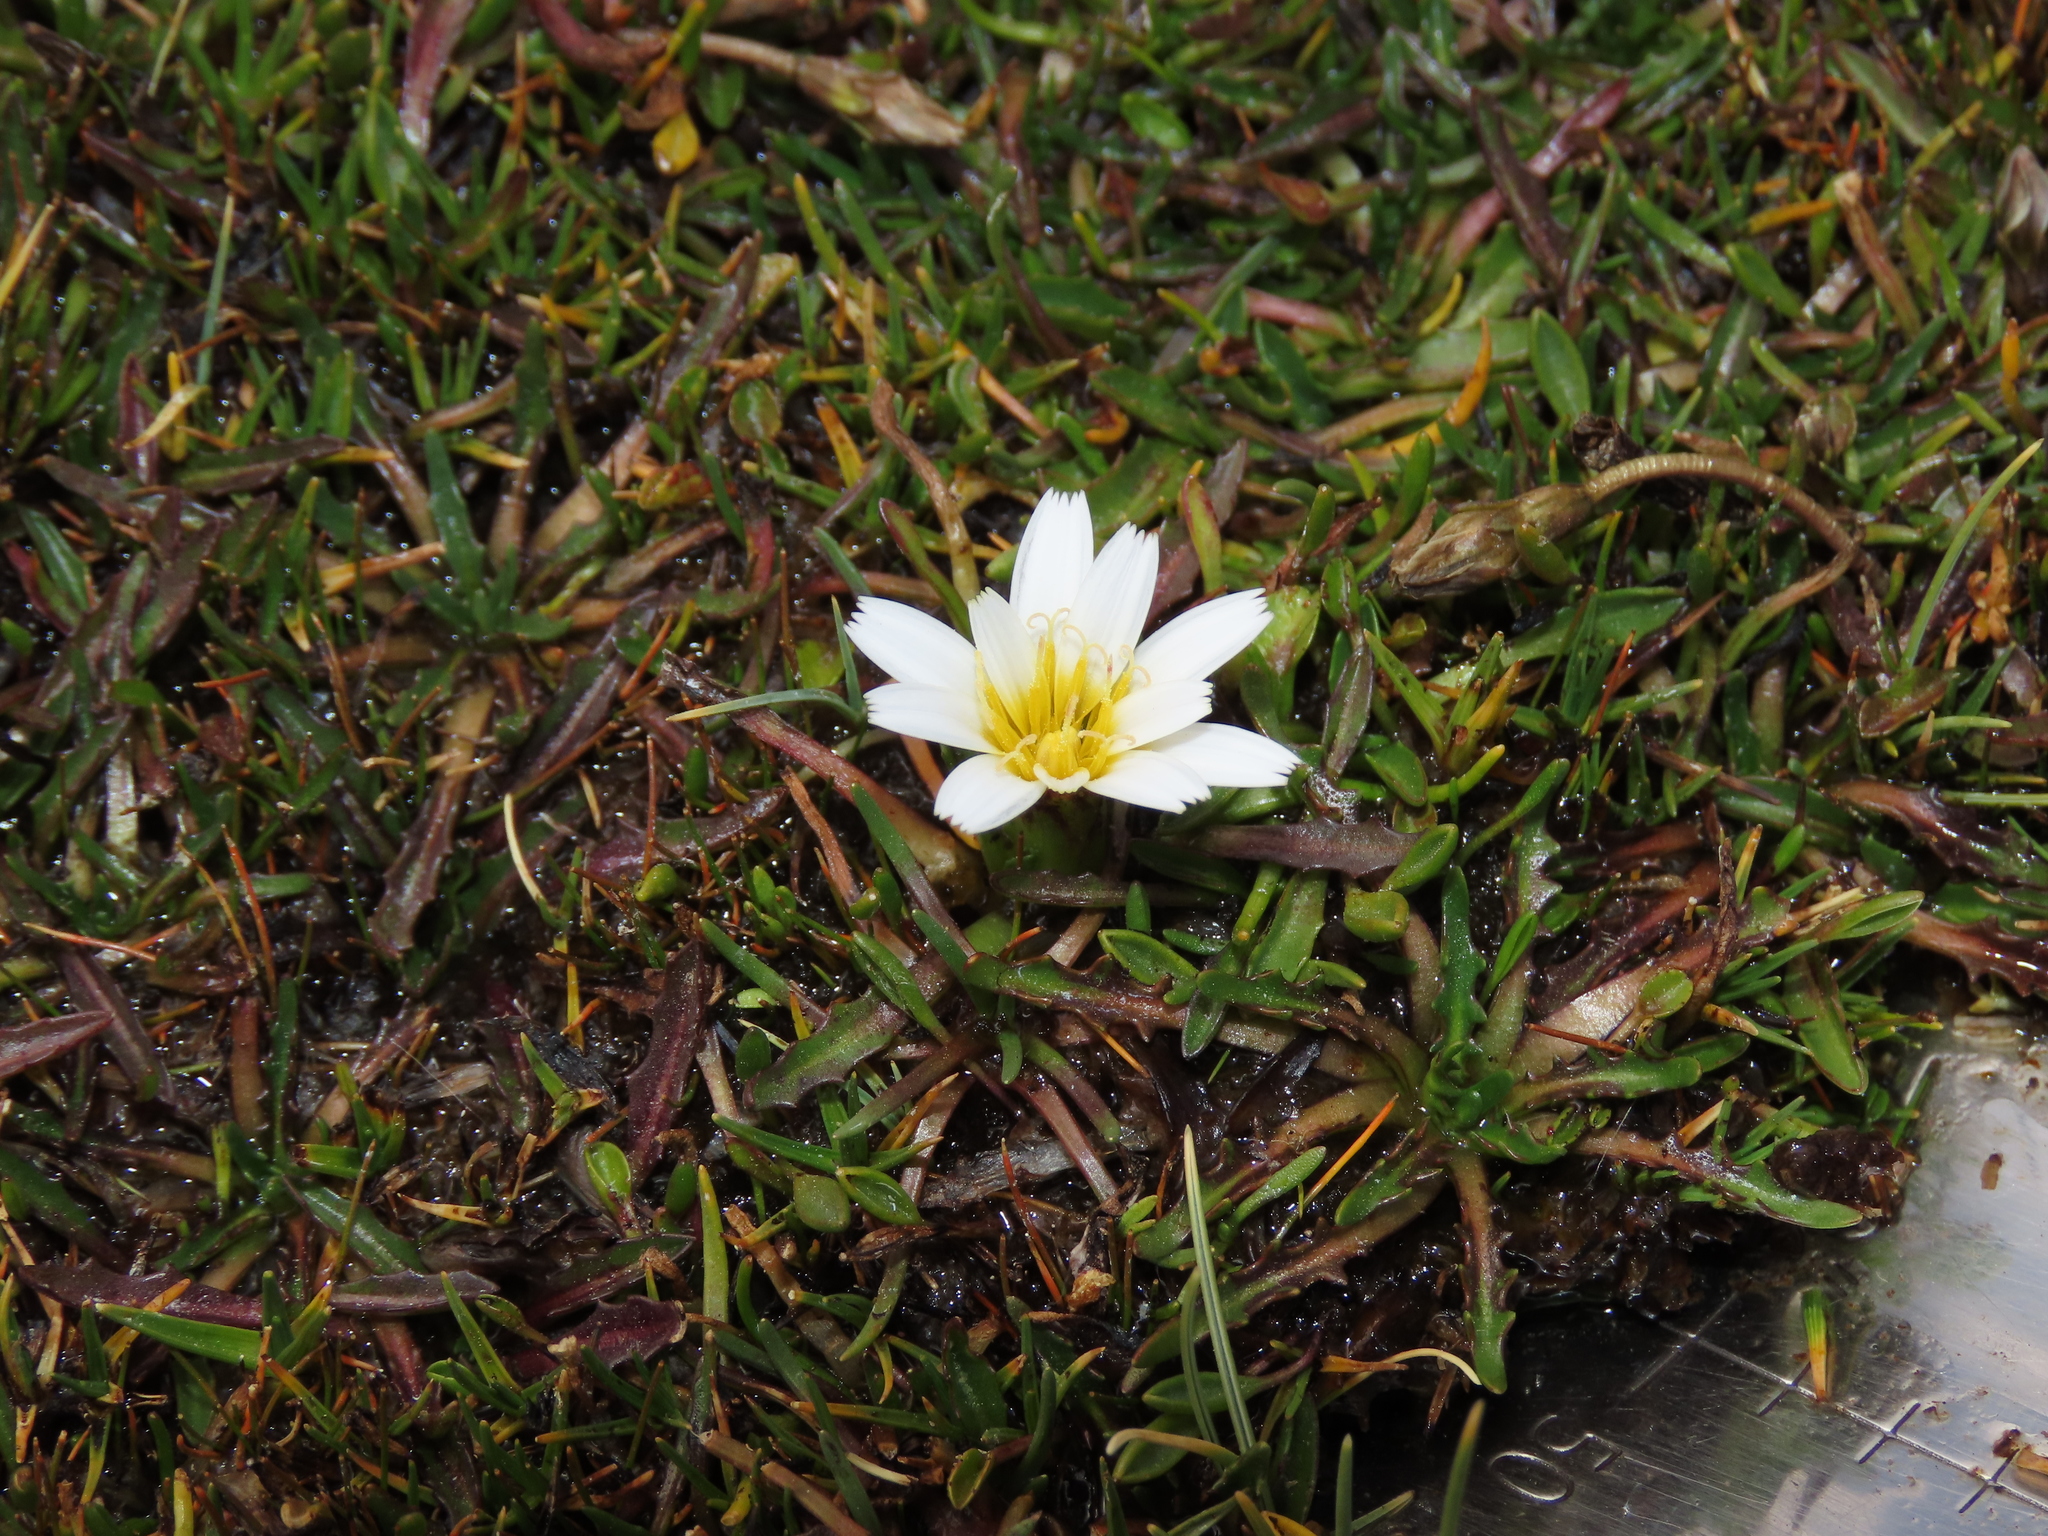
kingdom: Plantae
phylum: Tracheophyta
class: Magnoliopsida
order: Asterales
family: Asteraceae
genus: Hypochaeris
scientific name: Hypochaeris taraxacoides
